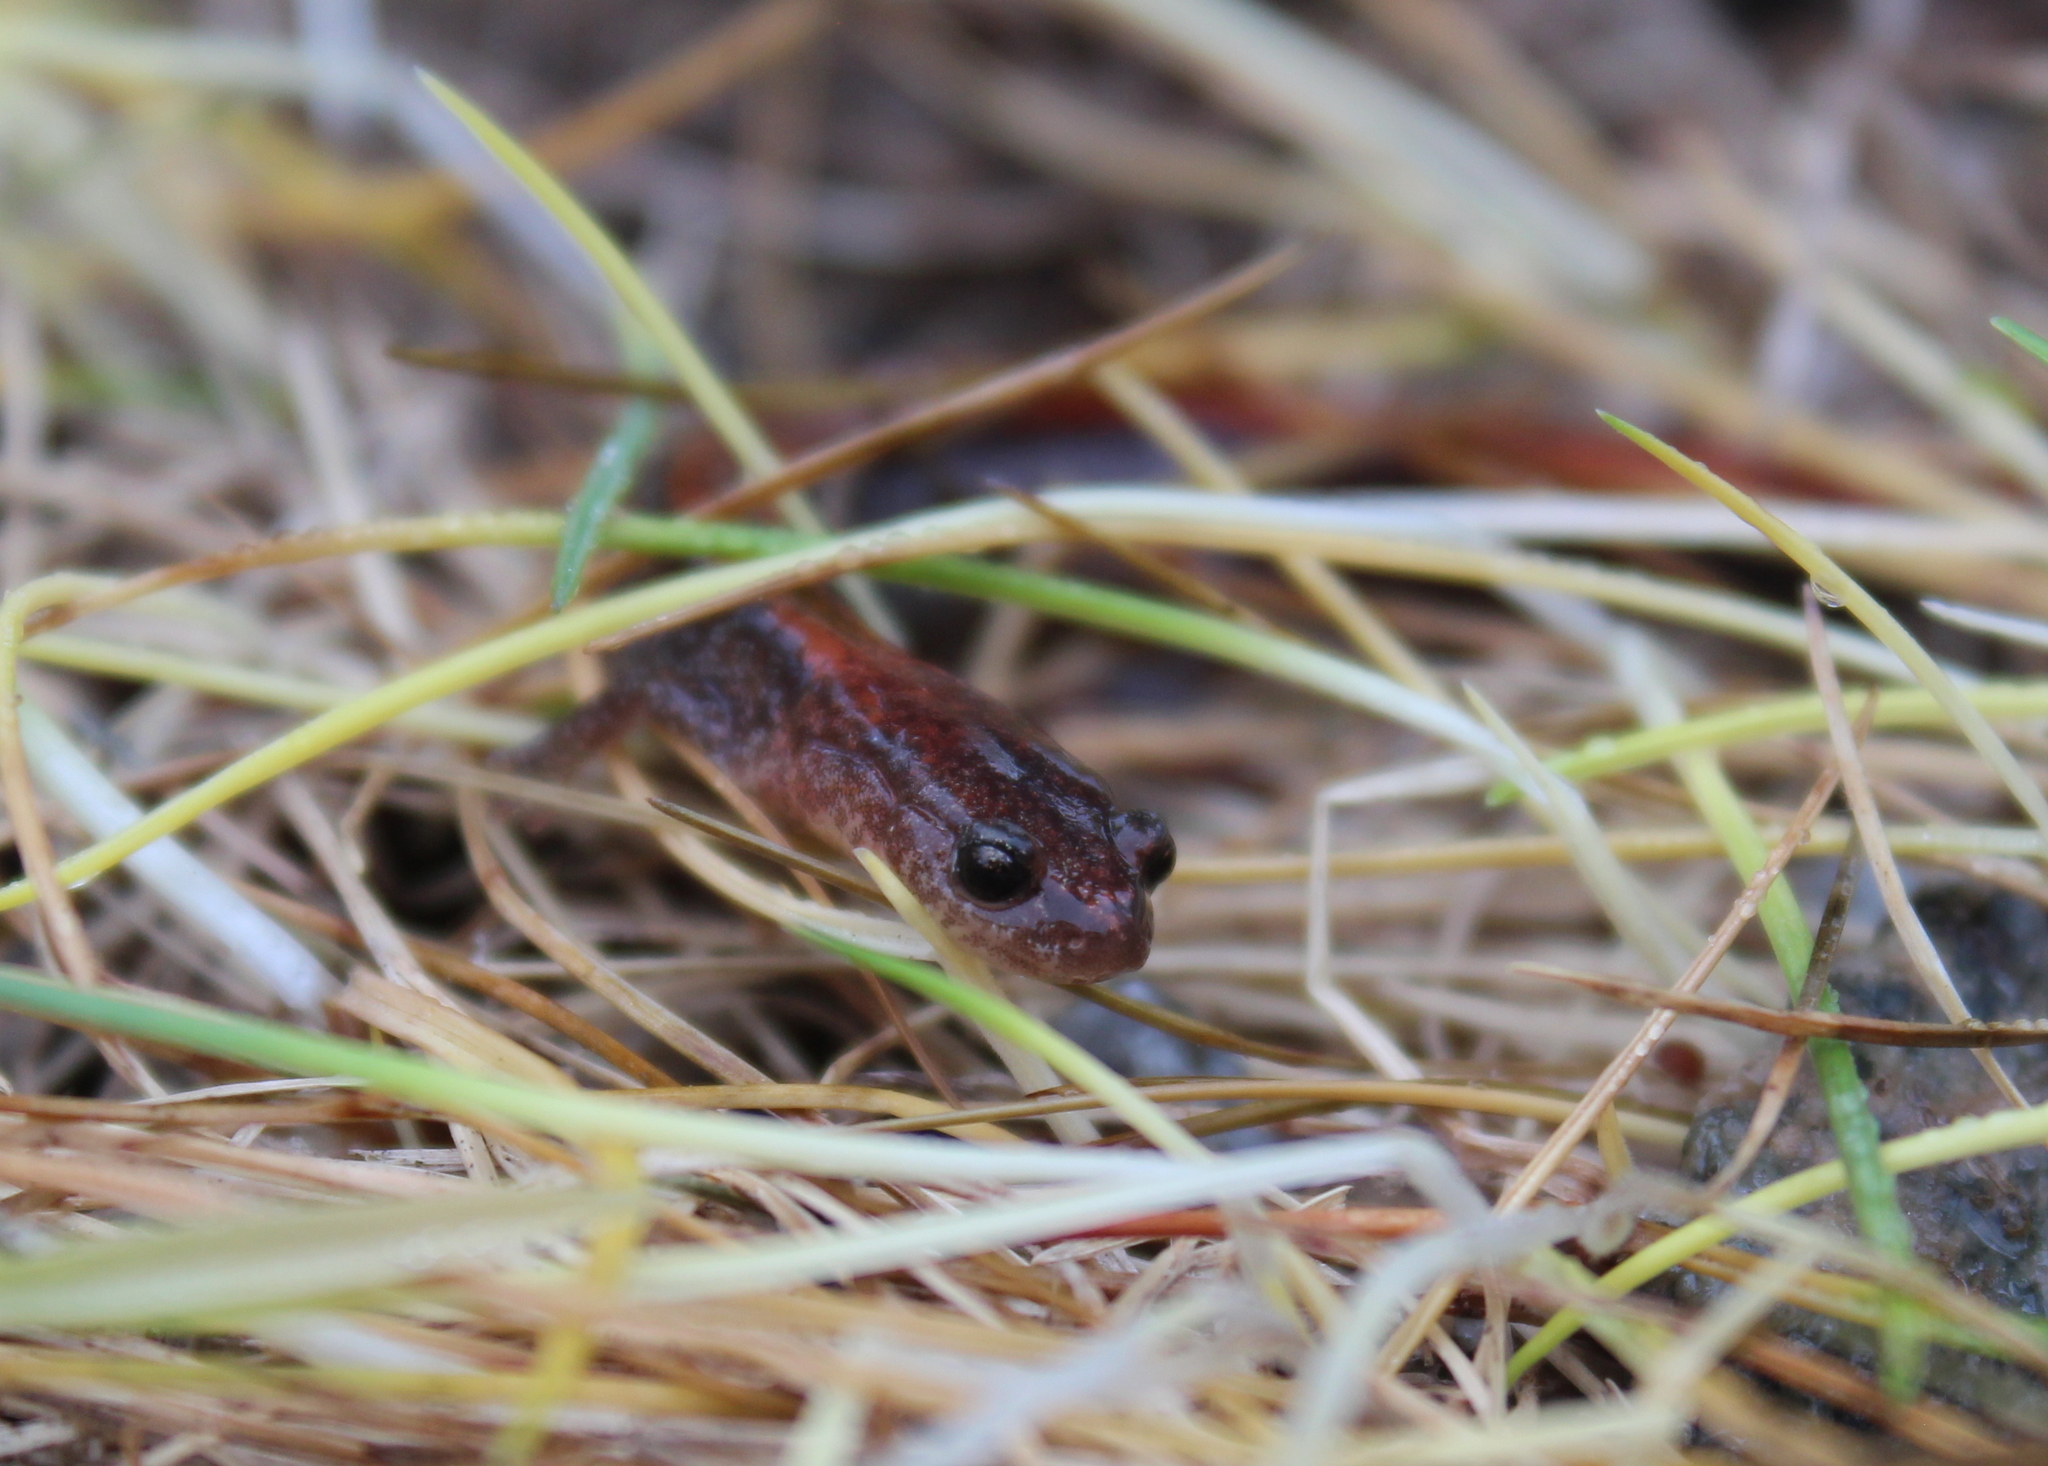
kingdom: Animalia
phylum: Chordata
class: Amphibia
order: Caudata
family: Plethodontidae
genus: Plethodon
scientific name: Plethodon cinereus
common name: Redback salamander
